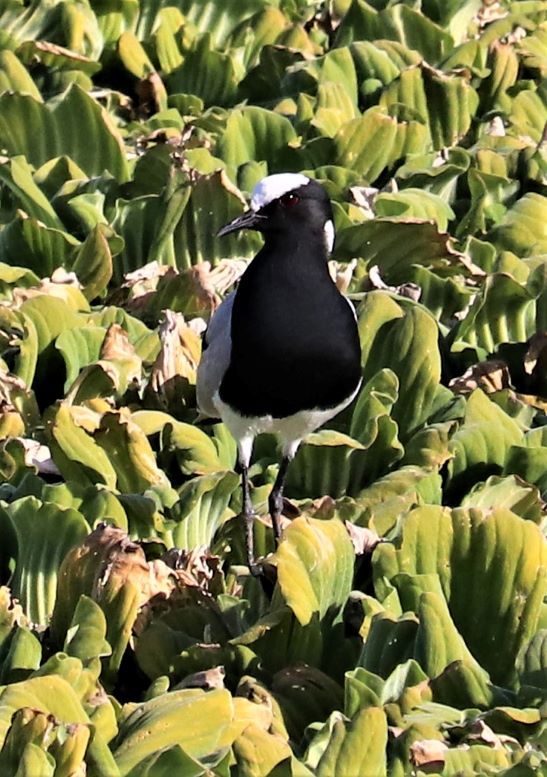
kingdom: Animalia
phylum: Chordata
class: Aves
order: Charadriiformes
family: Charadriidae
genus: Vanellus
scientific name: Vanellus armatus
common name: Blacksmith lapwing
